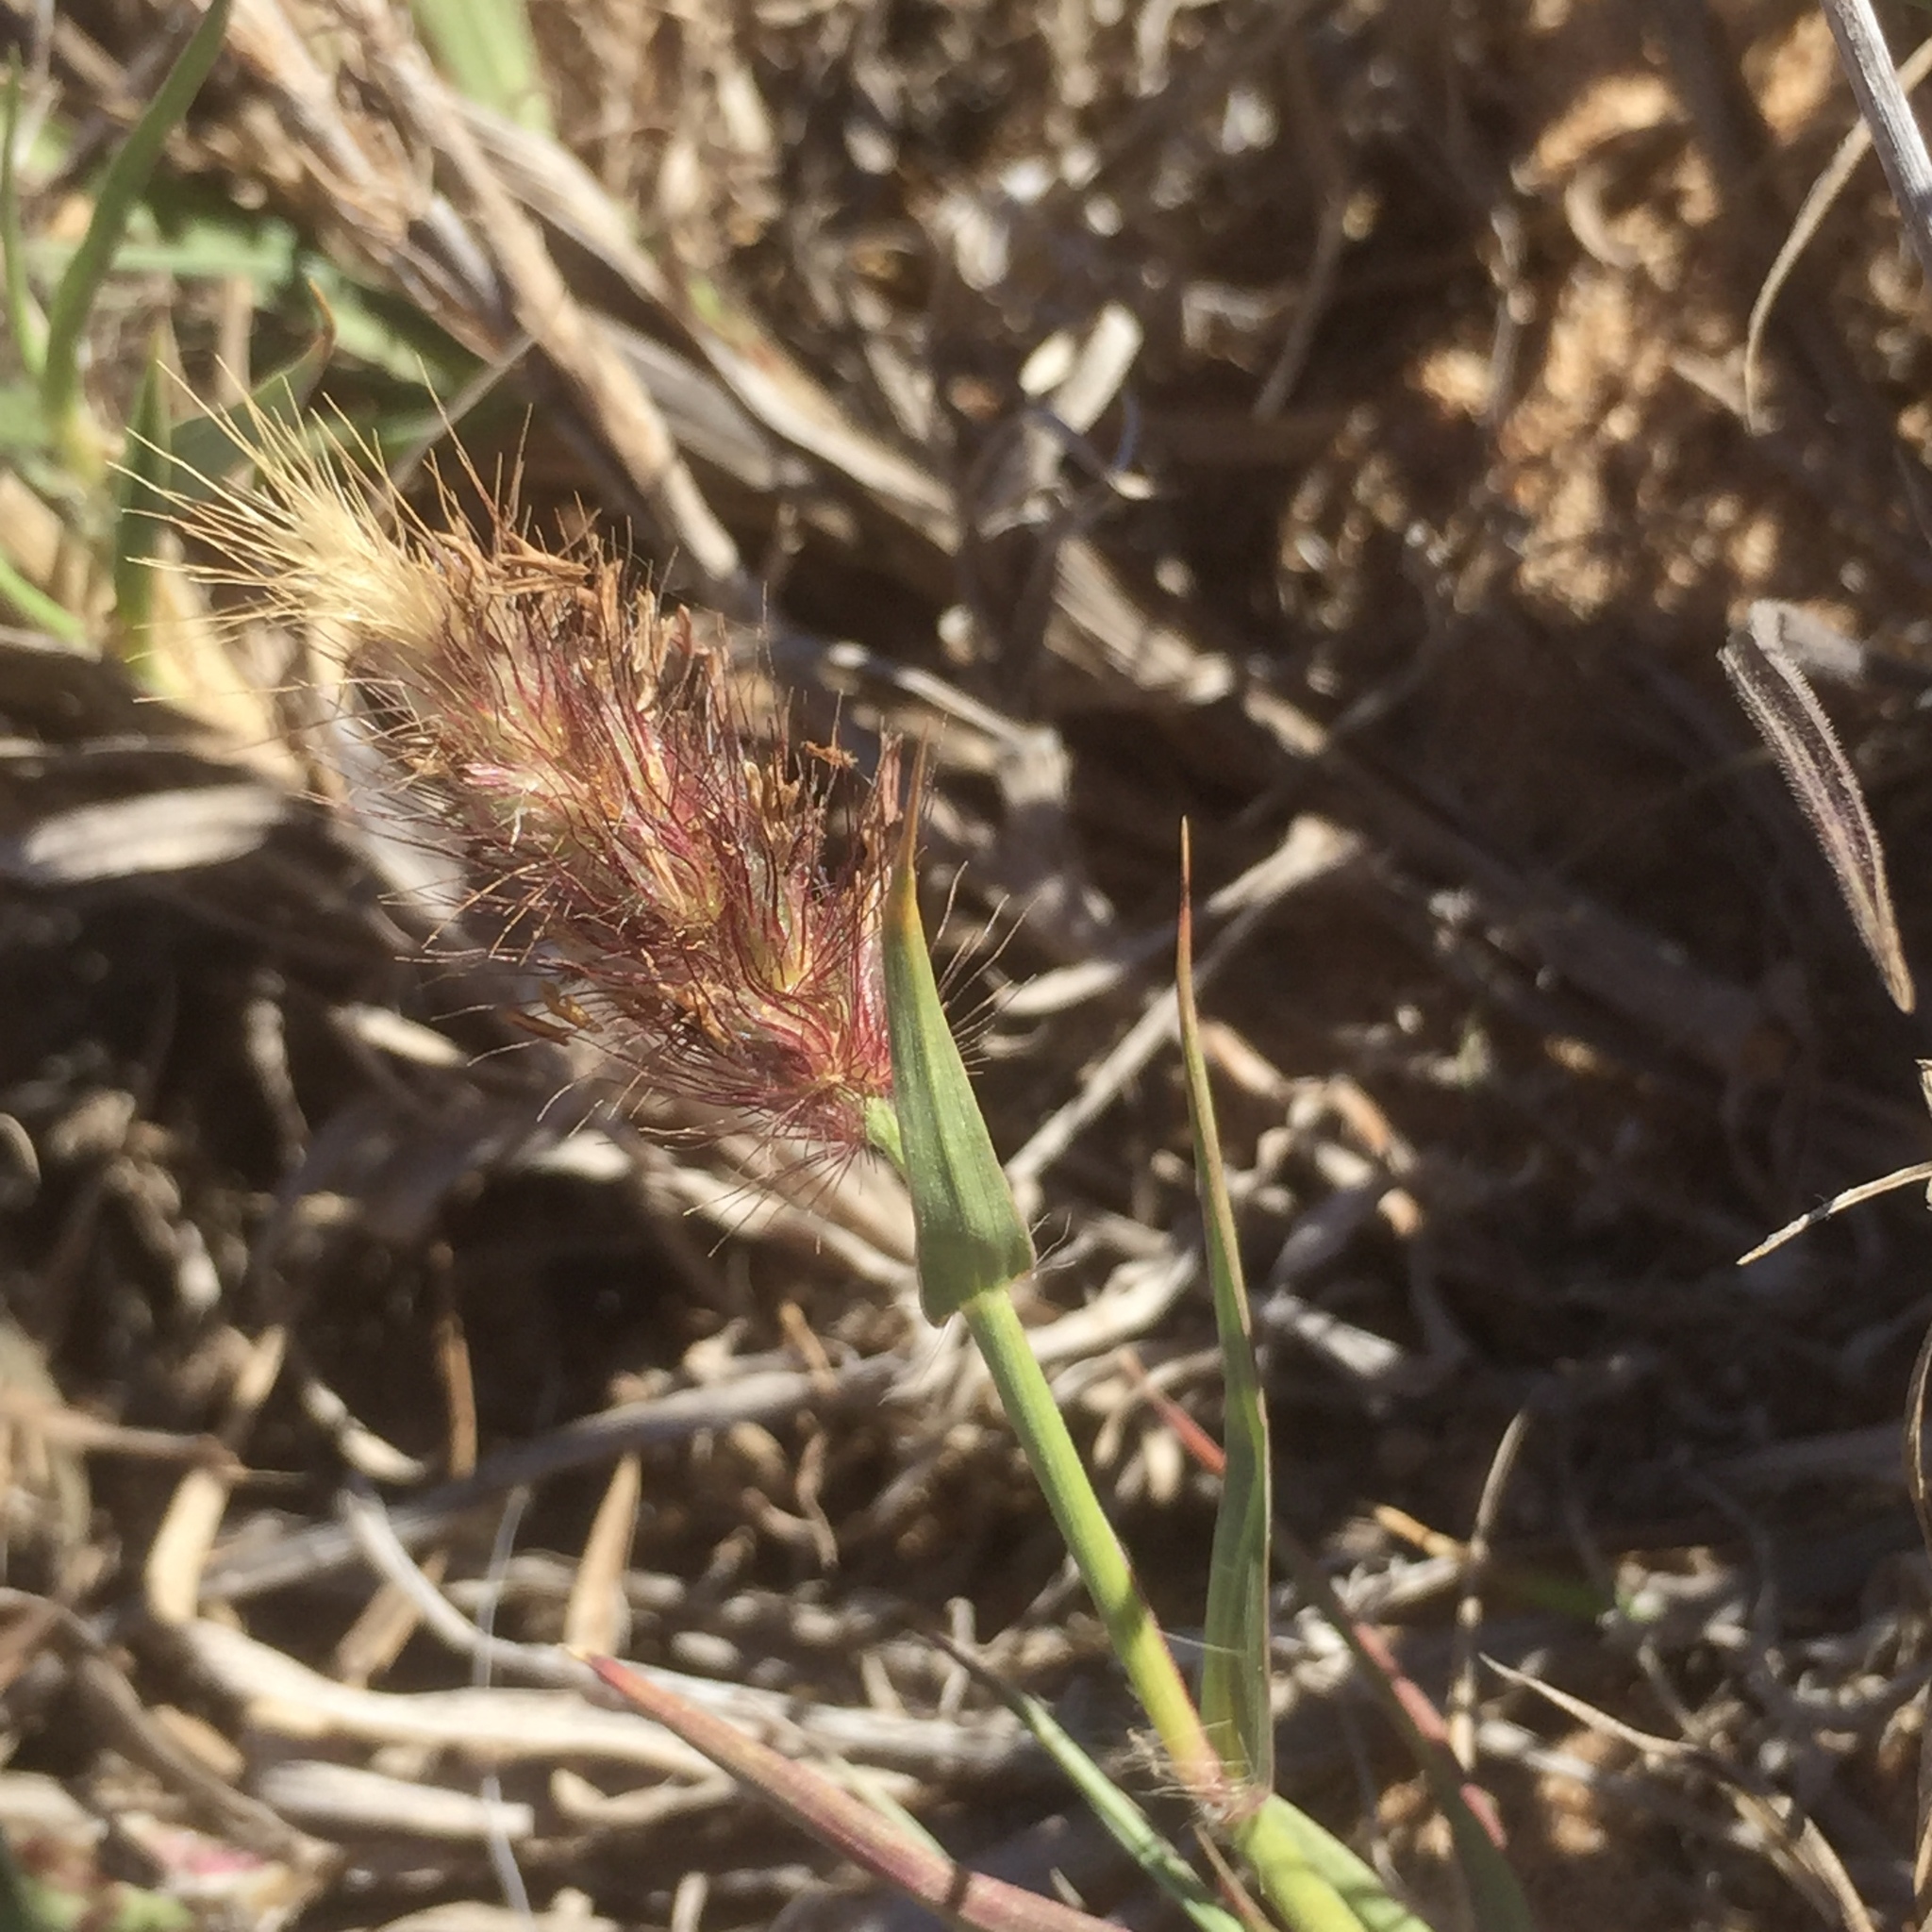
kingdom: Plantae
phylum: Tracheophyta
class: Liliopsida
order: Poales
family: Poaceae
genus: Cenchrus
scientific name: Cenchrus ciliaris
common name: Buffelgrass
